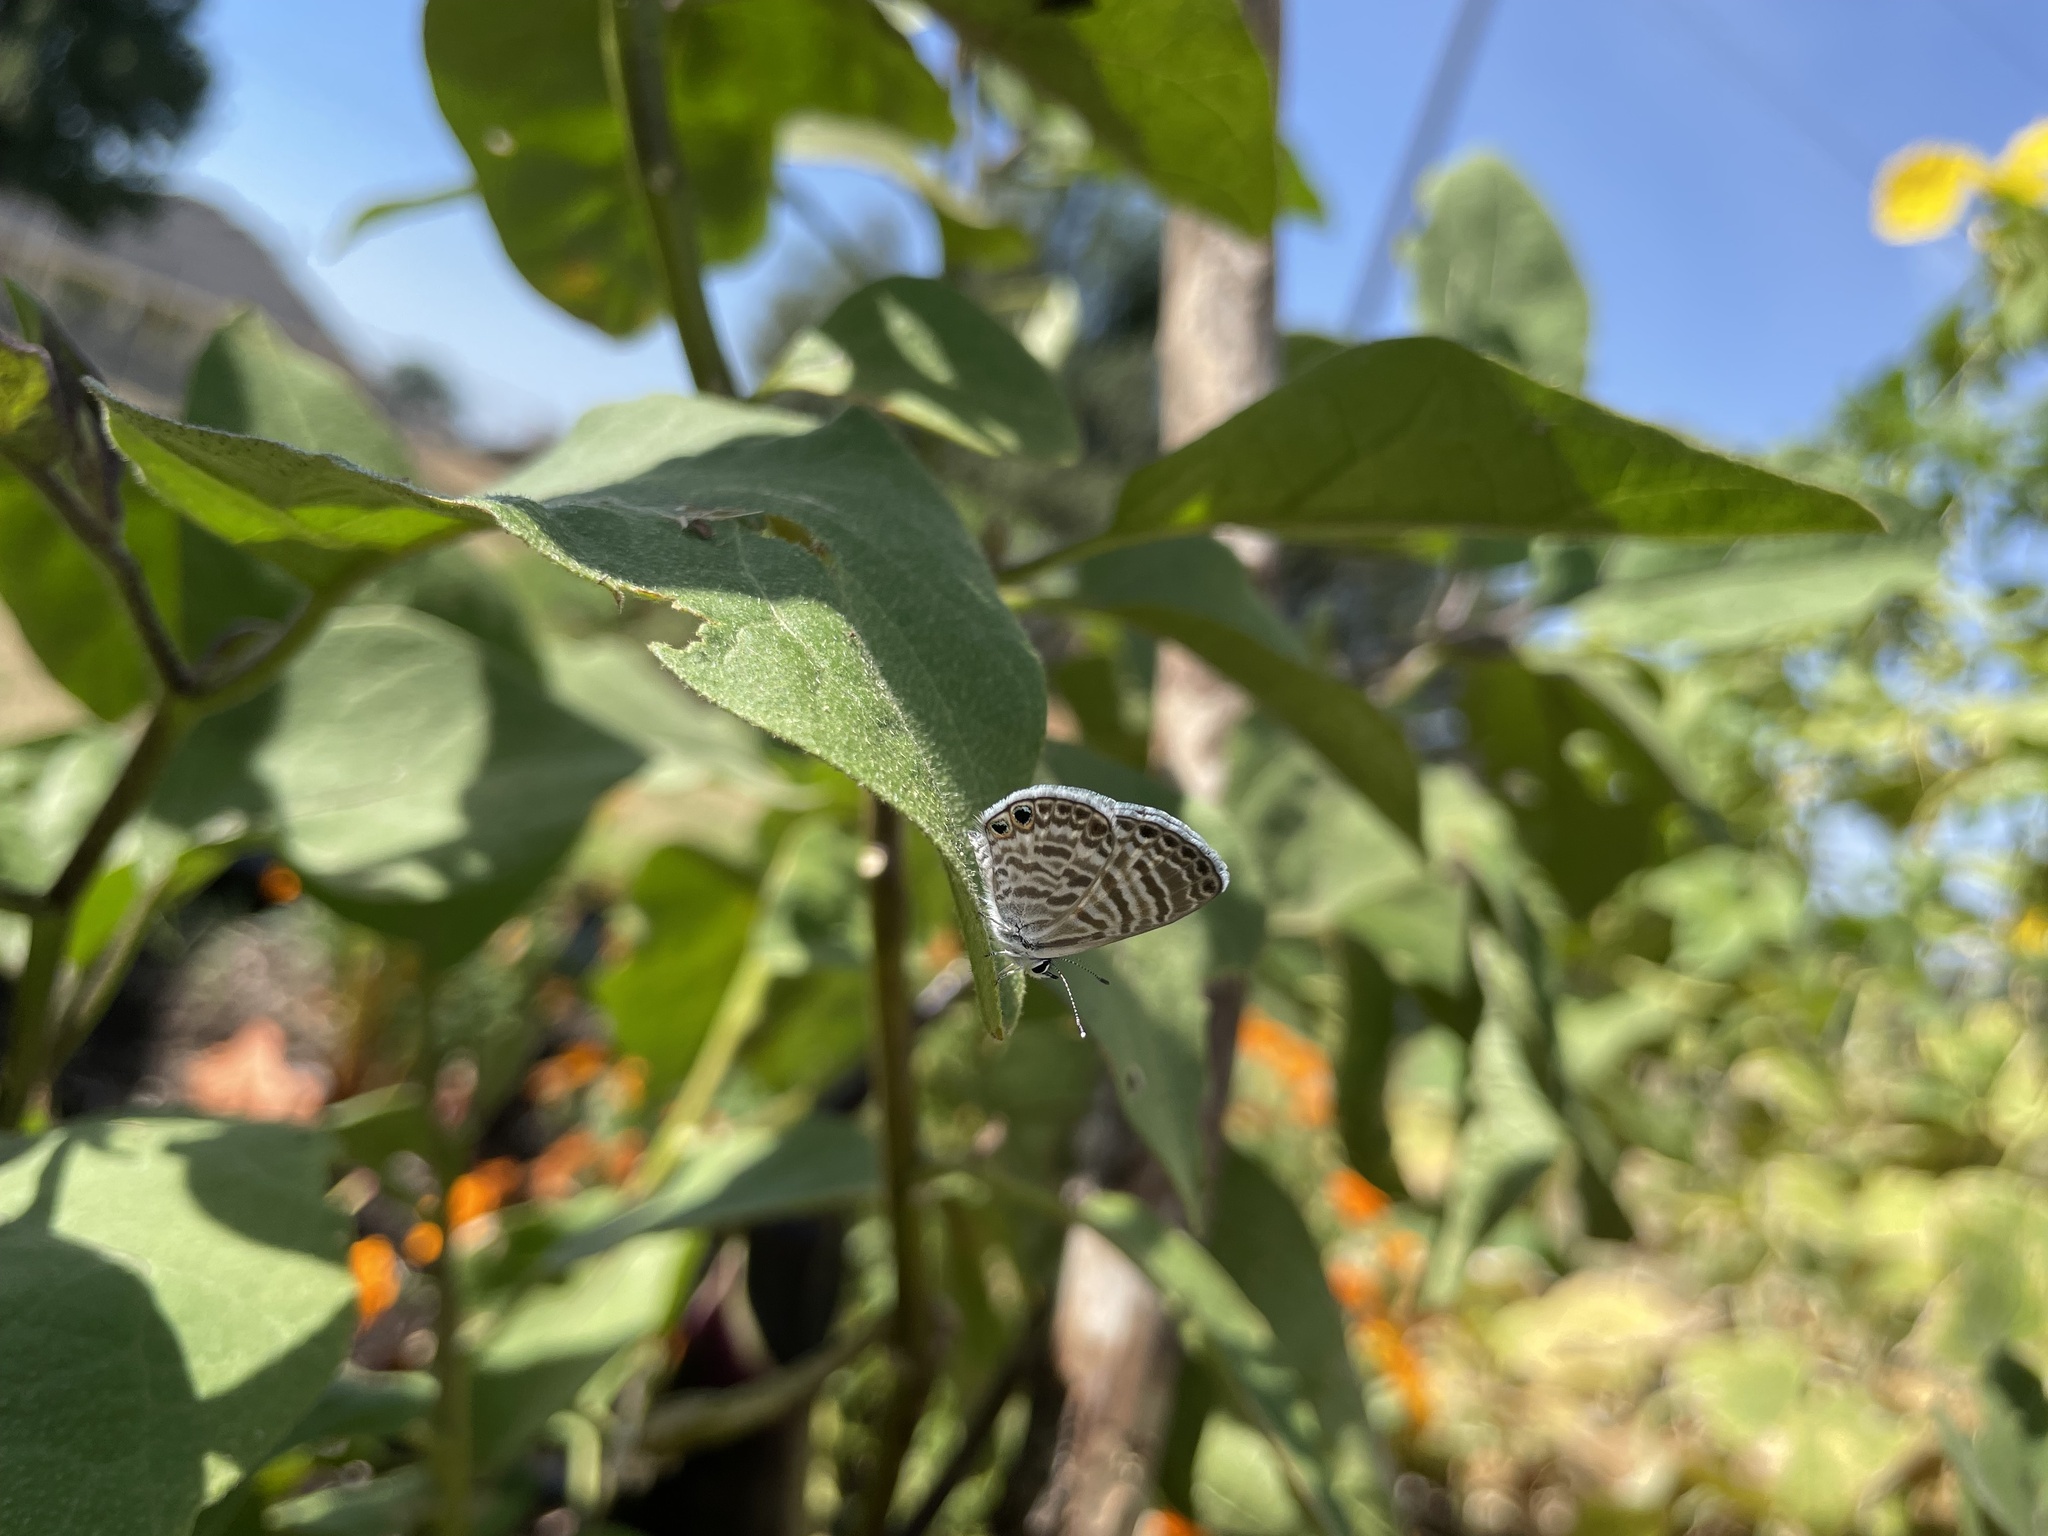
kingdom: Animalia
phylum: Arthropoda
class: Insecta
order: Lepidoptera
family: Lycaenidae
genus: Leptotes
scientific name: Leptotes marina
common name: Marine blue
